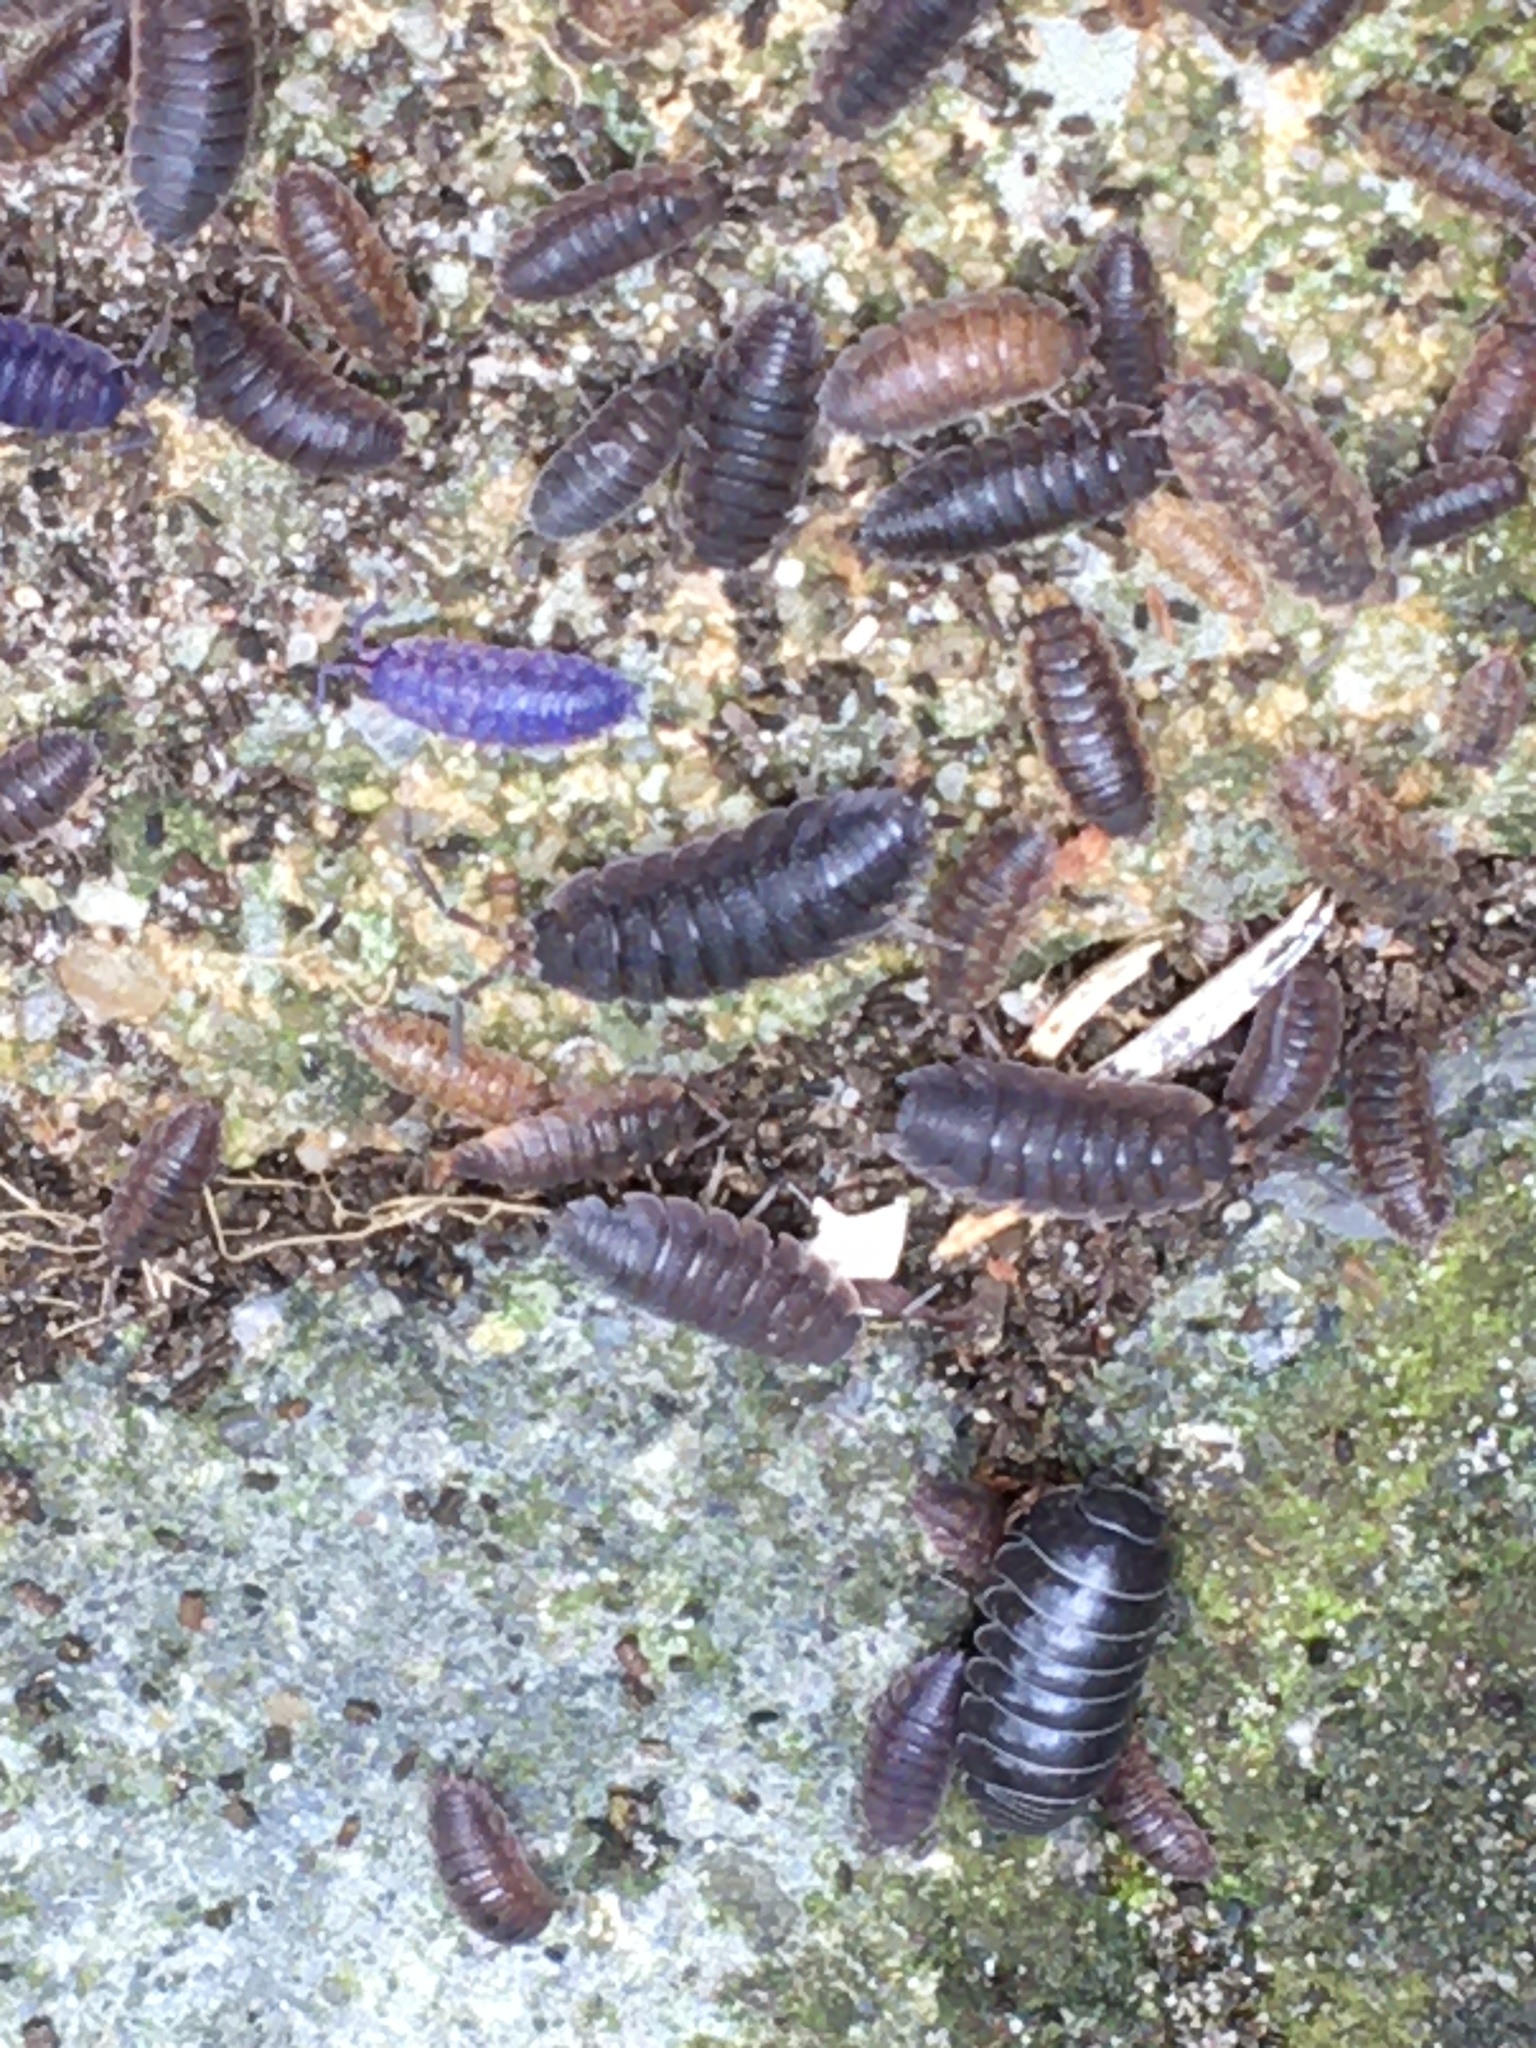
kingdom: Animalia
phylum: Arthropoda
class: Malacostraca
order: Isopoda
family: Porcellionidae
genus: Porcellio
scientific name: Porcellio scaber
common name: Common rough woodlouse
